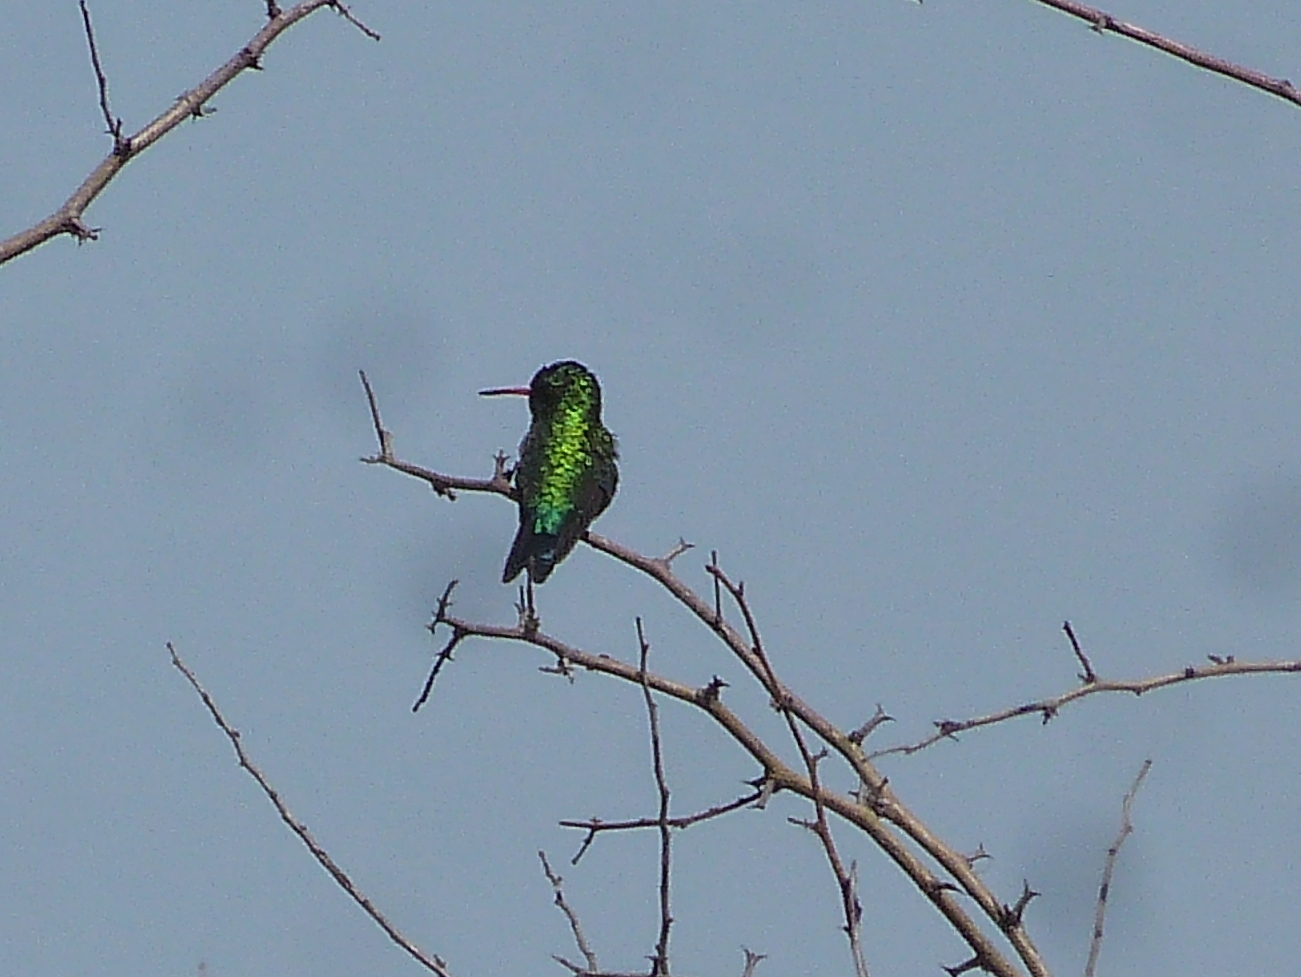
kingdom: Animalia
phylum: Chordata
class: Aves
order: Apodiformes
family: Trochilidae
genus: Chlorostilbon
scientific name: Chlorostilbon lucidus
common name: Glittering-bellied emerald
